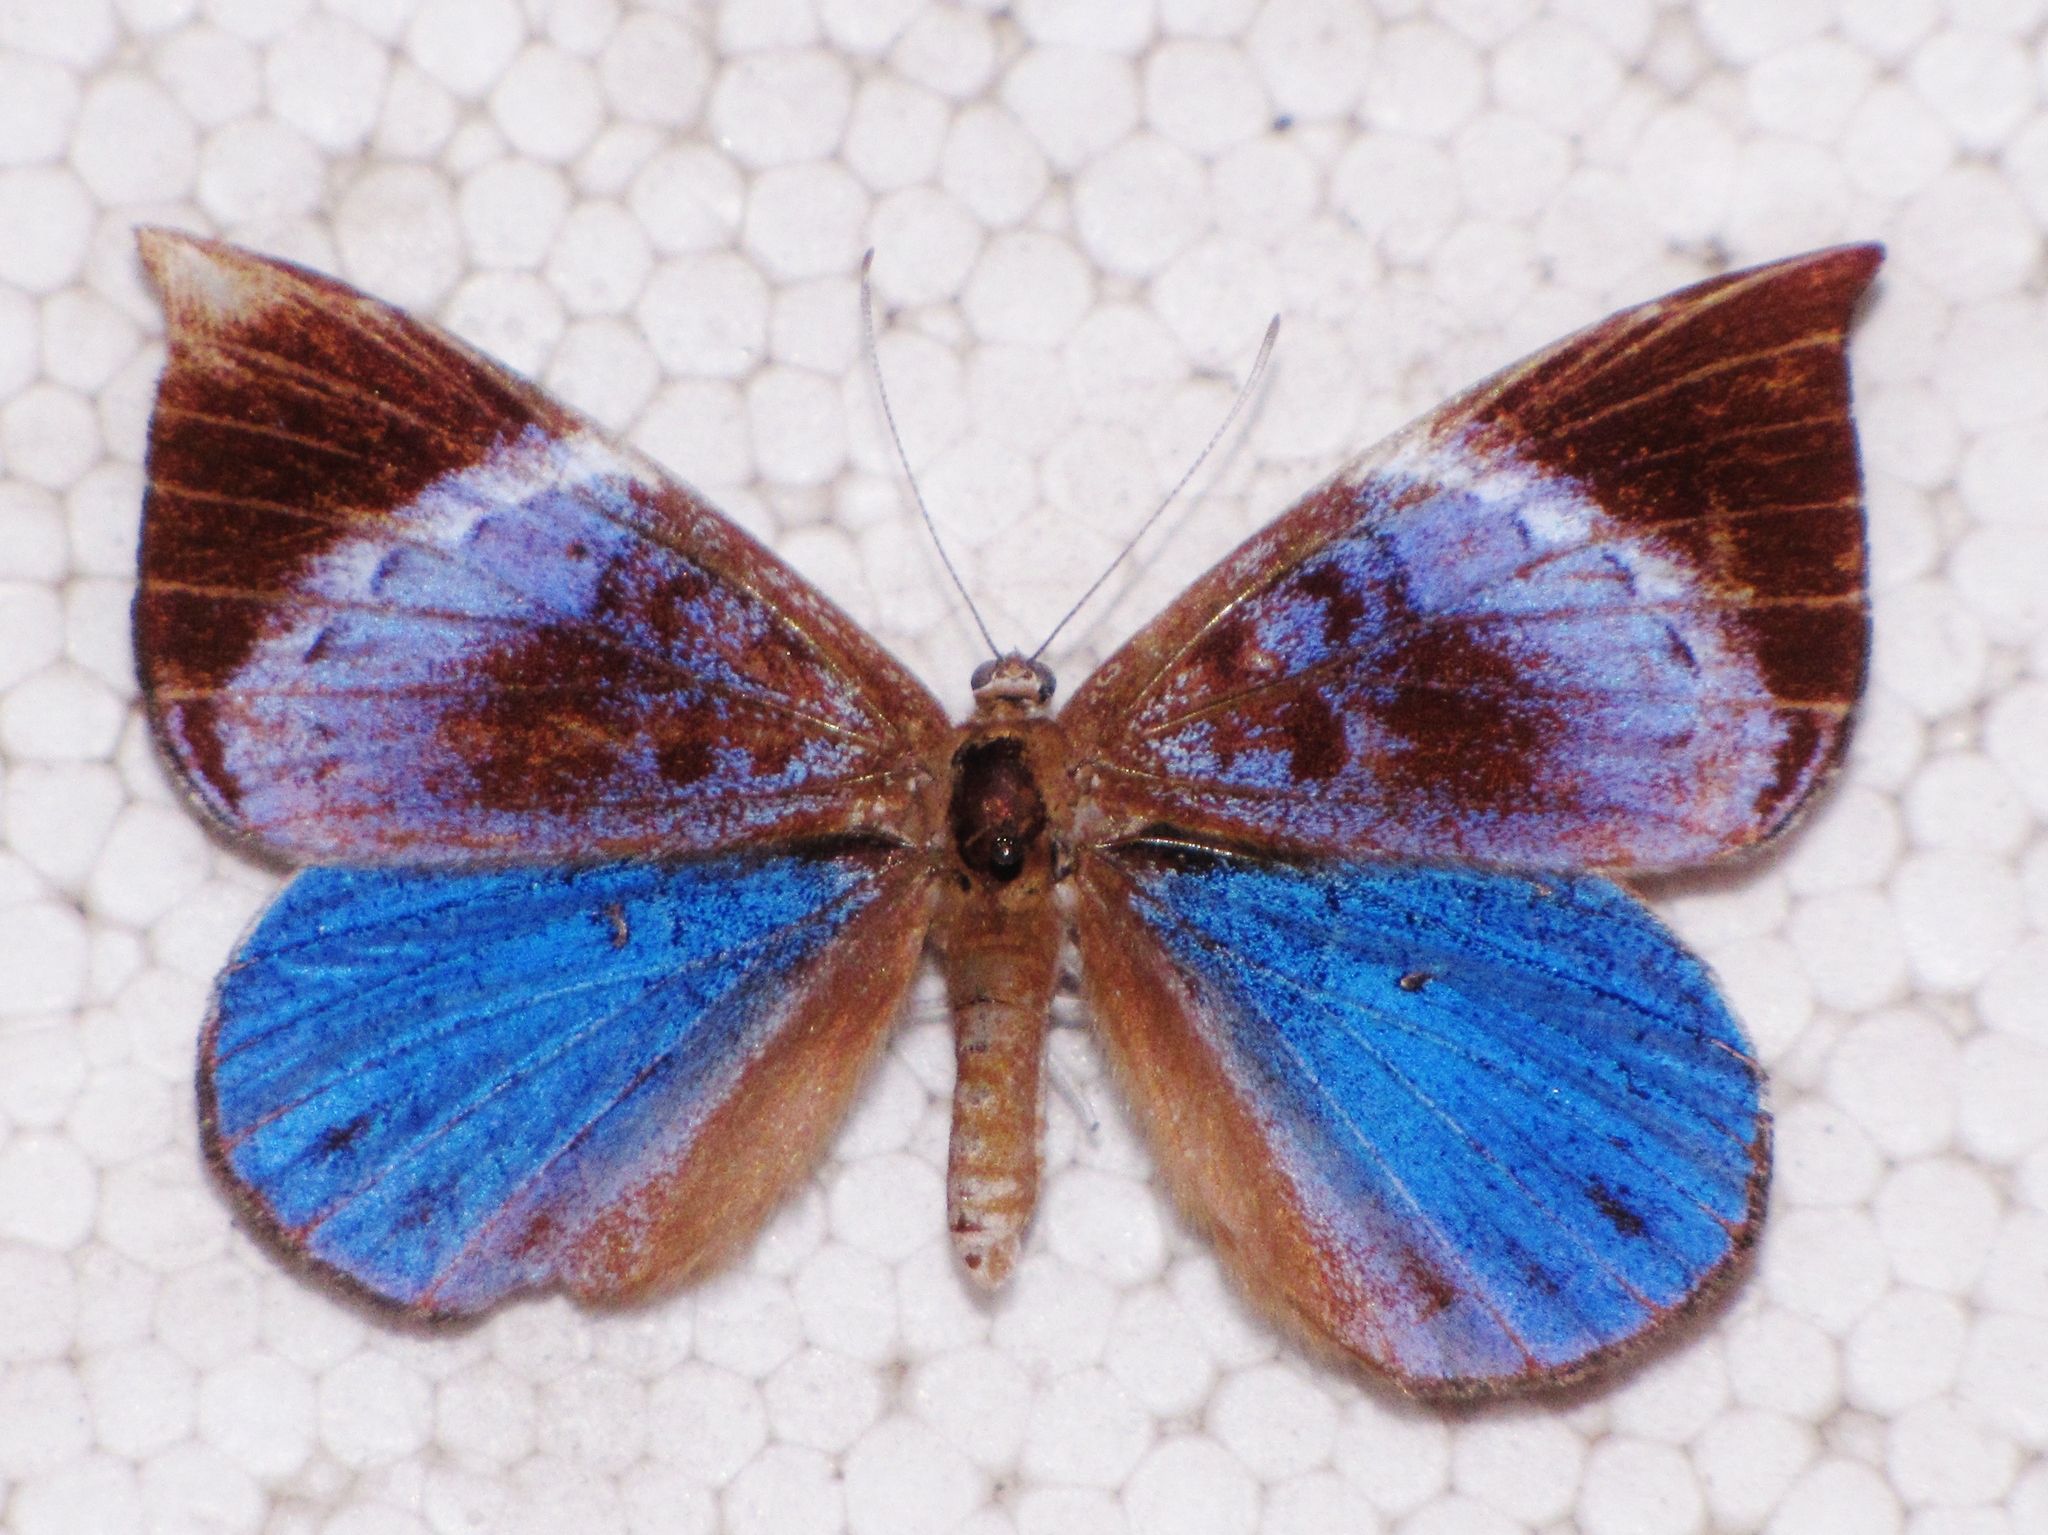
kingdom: Animalia
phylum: Arthropoda
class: Insecta
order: Lepidoptera
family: Riodinidae
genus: Behemothia
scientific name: Behemothia godmanii
